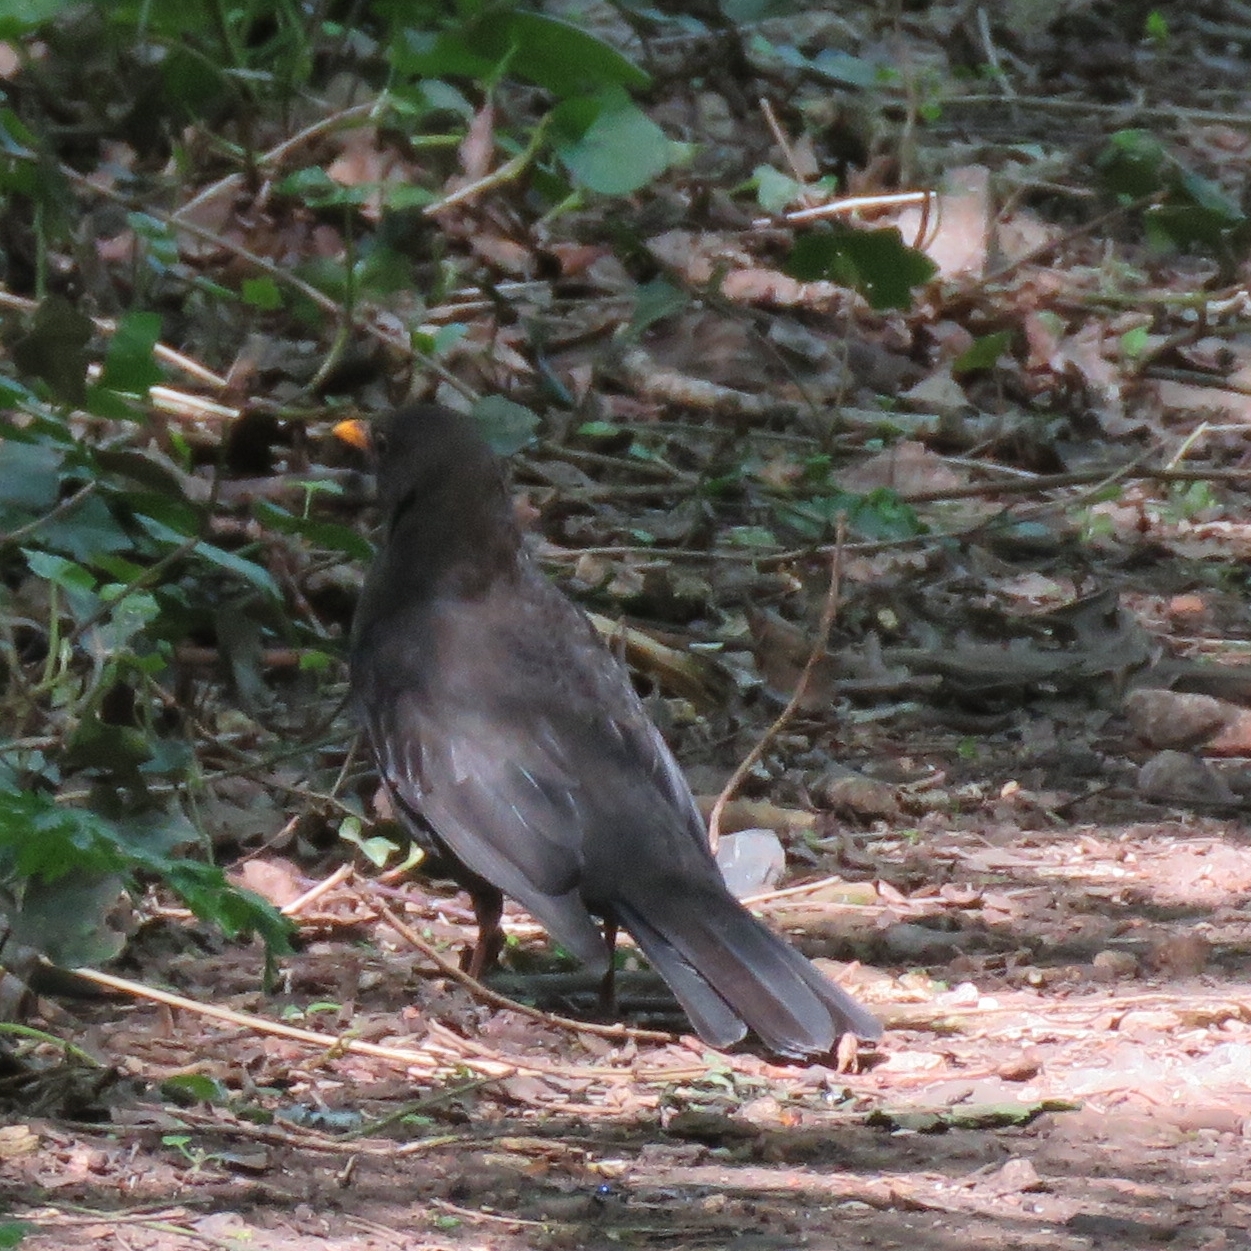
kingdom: Animalia
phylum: Chordata
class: Aves
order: Passeriformes
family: Turdidae
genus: Turdus
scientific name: Turdus merula
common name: Common blackbird
